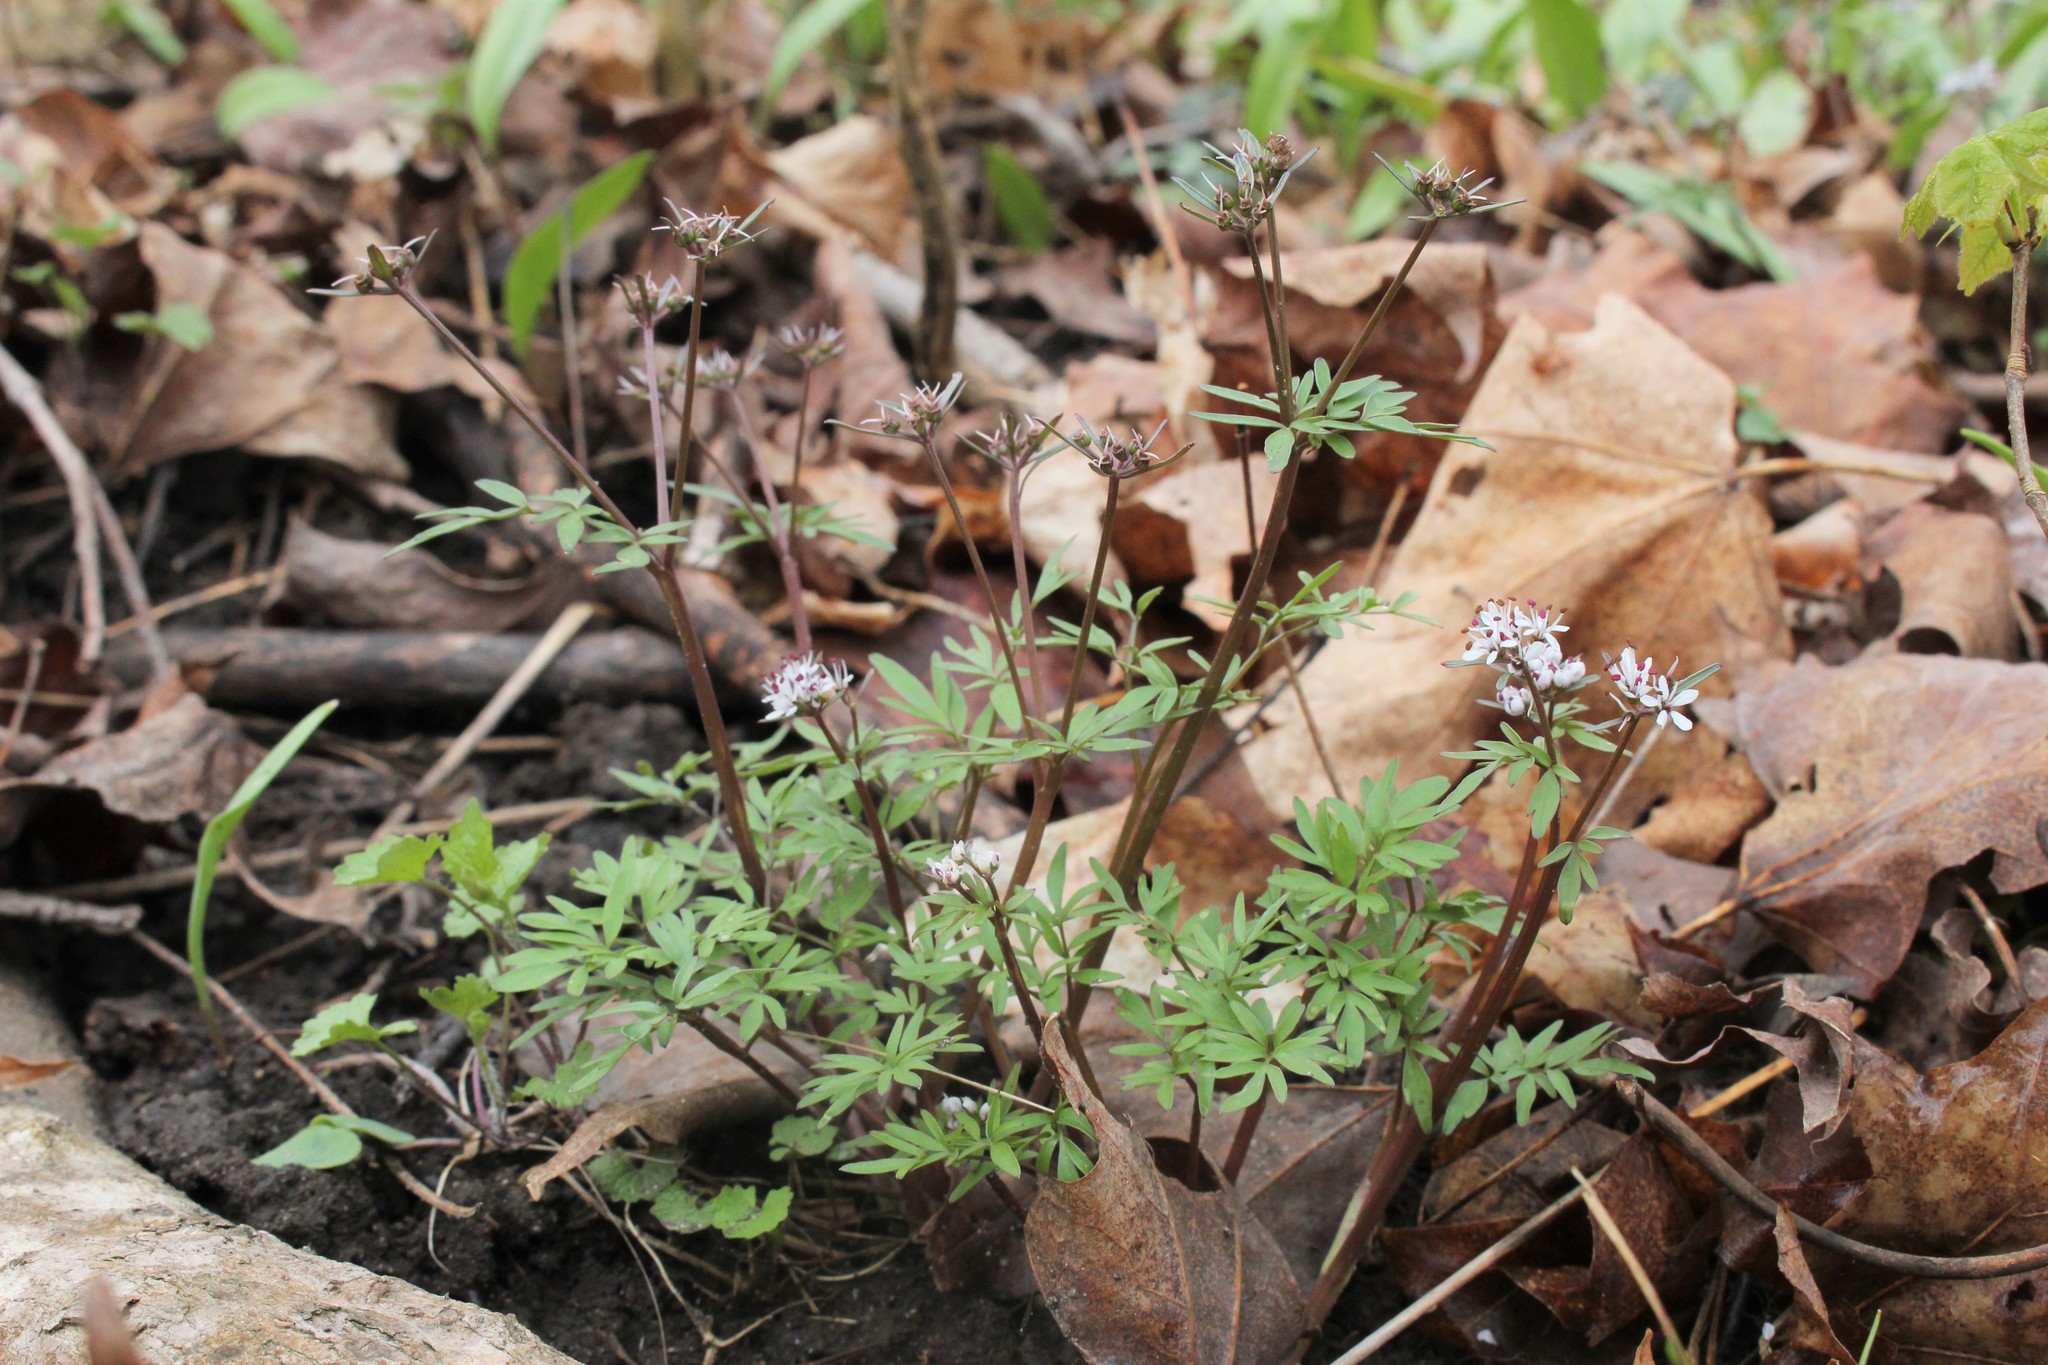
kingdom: Plantae
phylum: Tracheophyta
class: Magnoliopsida
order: Apiales
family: Apiaceae
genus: Erigenia
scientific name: Erigenia bulbosa
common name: Pepper-and-salt
